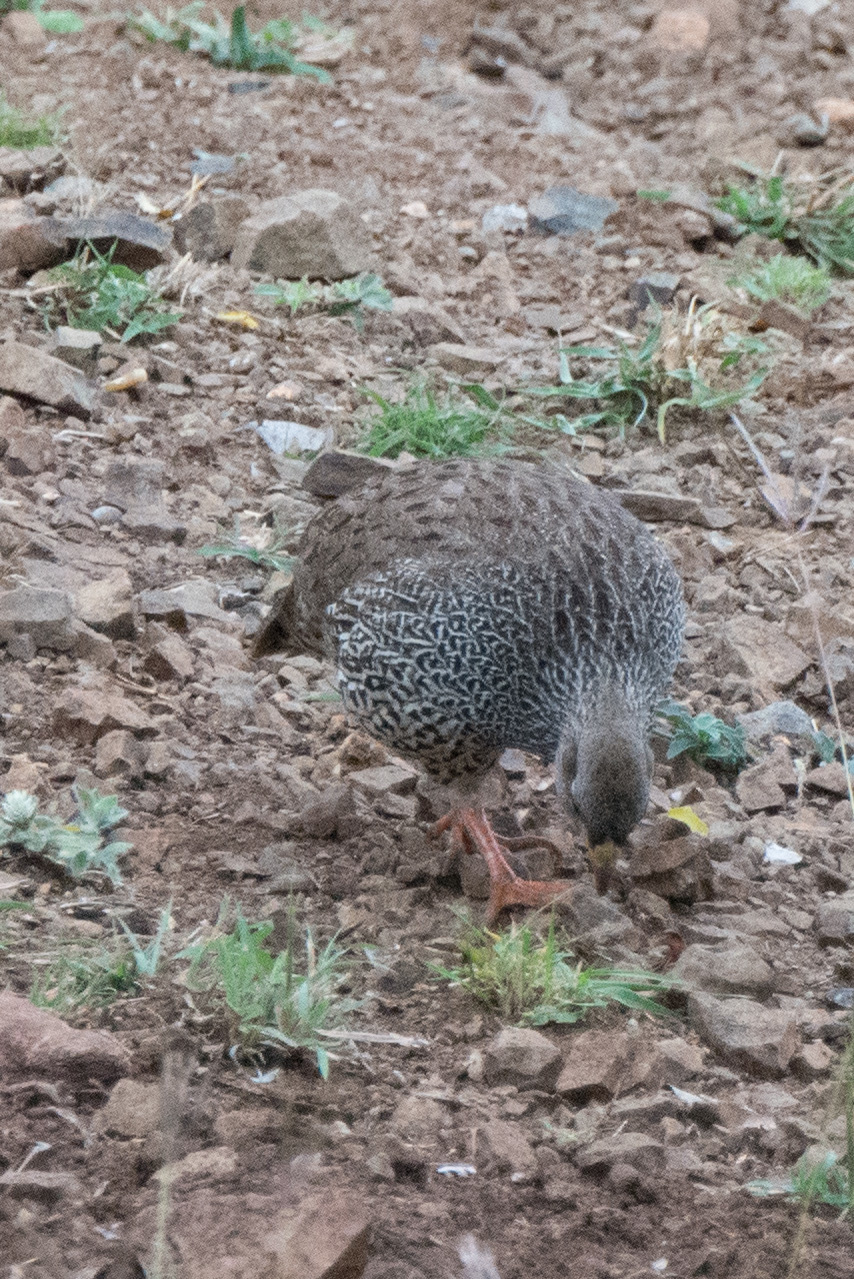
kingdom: Animalia
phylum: Chordata
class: Aves
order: Galliformes
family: Phasianidae
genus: Pternistis
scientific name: Pternistis natalensis
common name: Natal spurfowl
